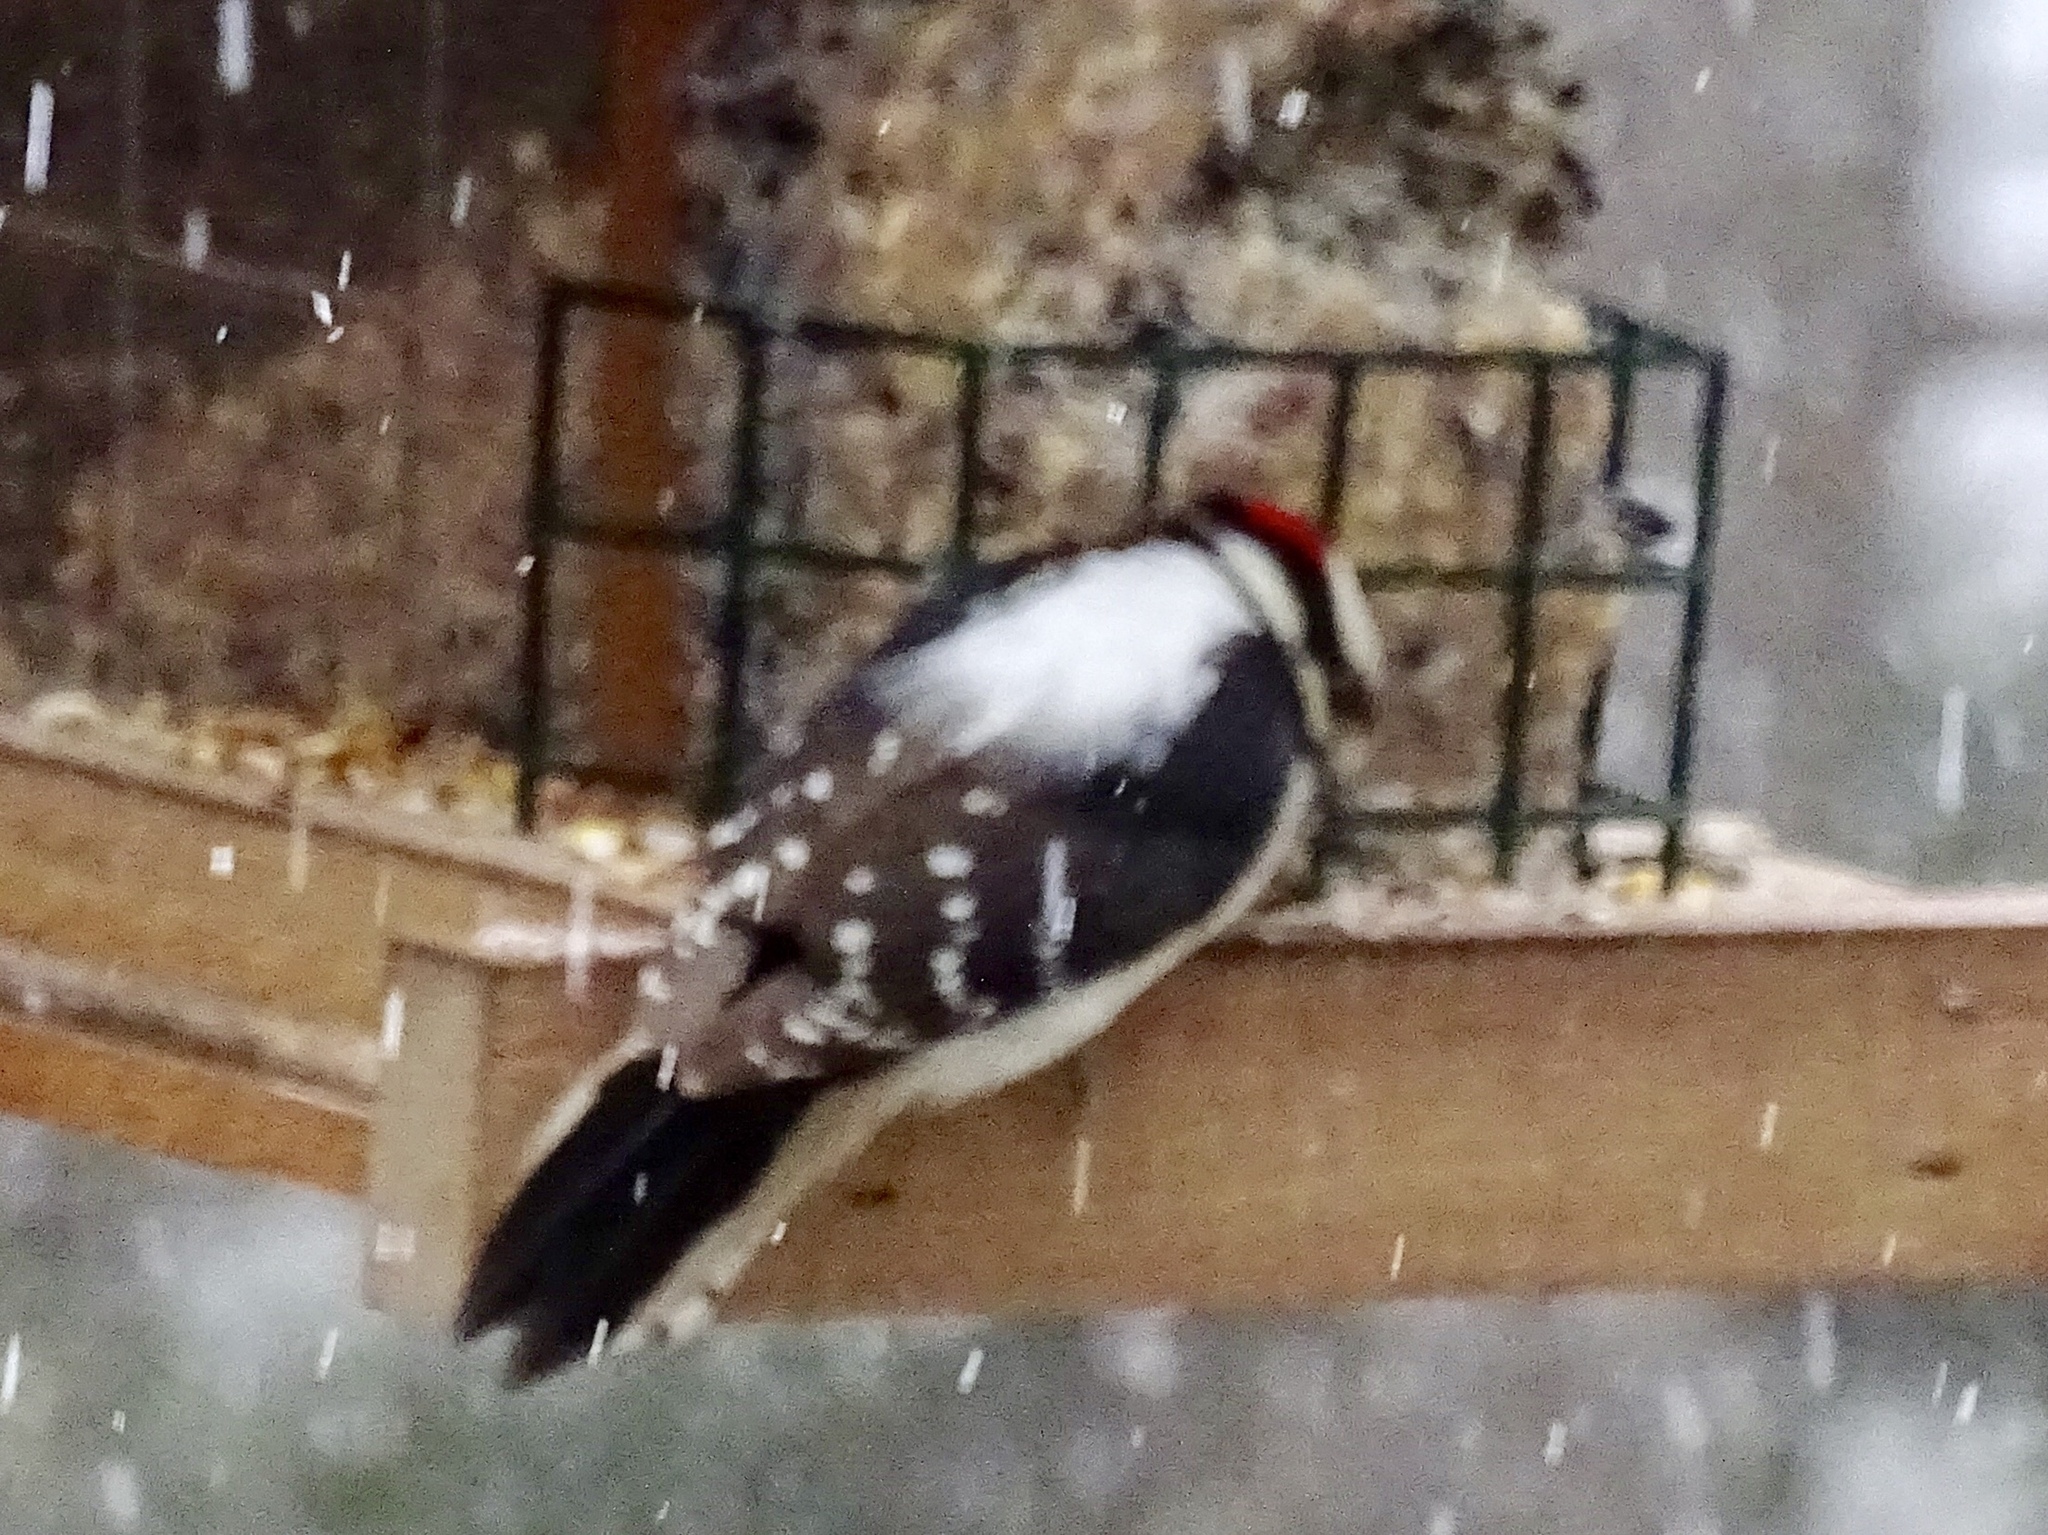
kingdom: Animalia
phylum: Chordata
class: Aves
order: Piciformes
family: Picidae
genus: Dryobates
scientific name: Dryobates pubescens
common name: Downy woodpecker
